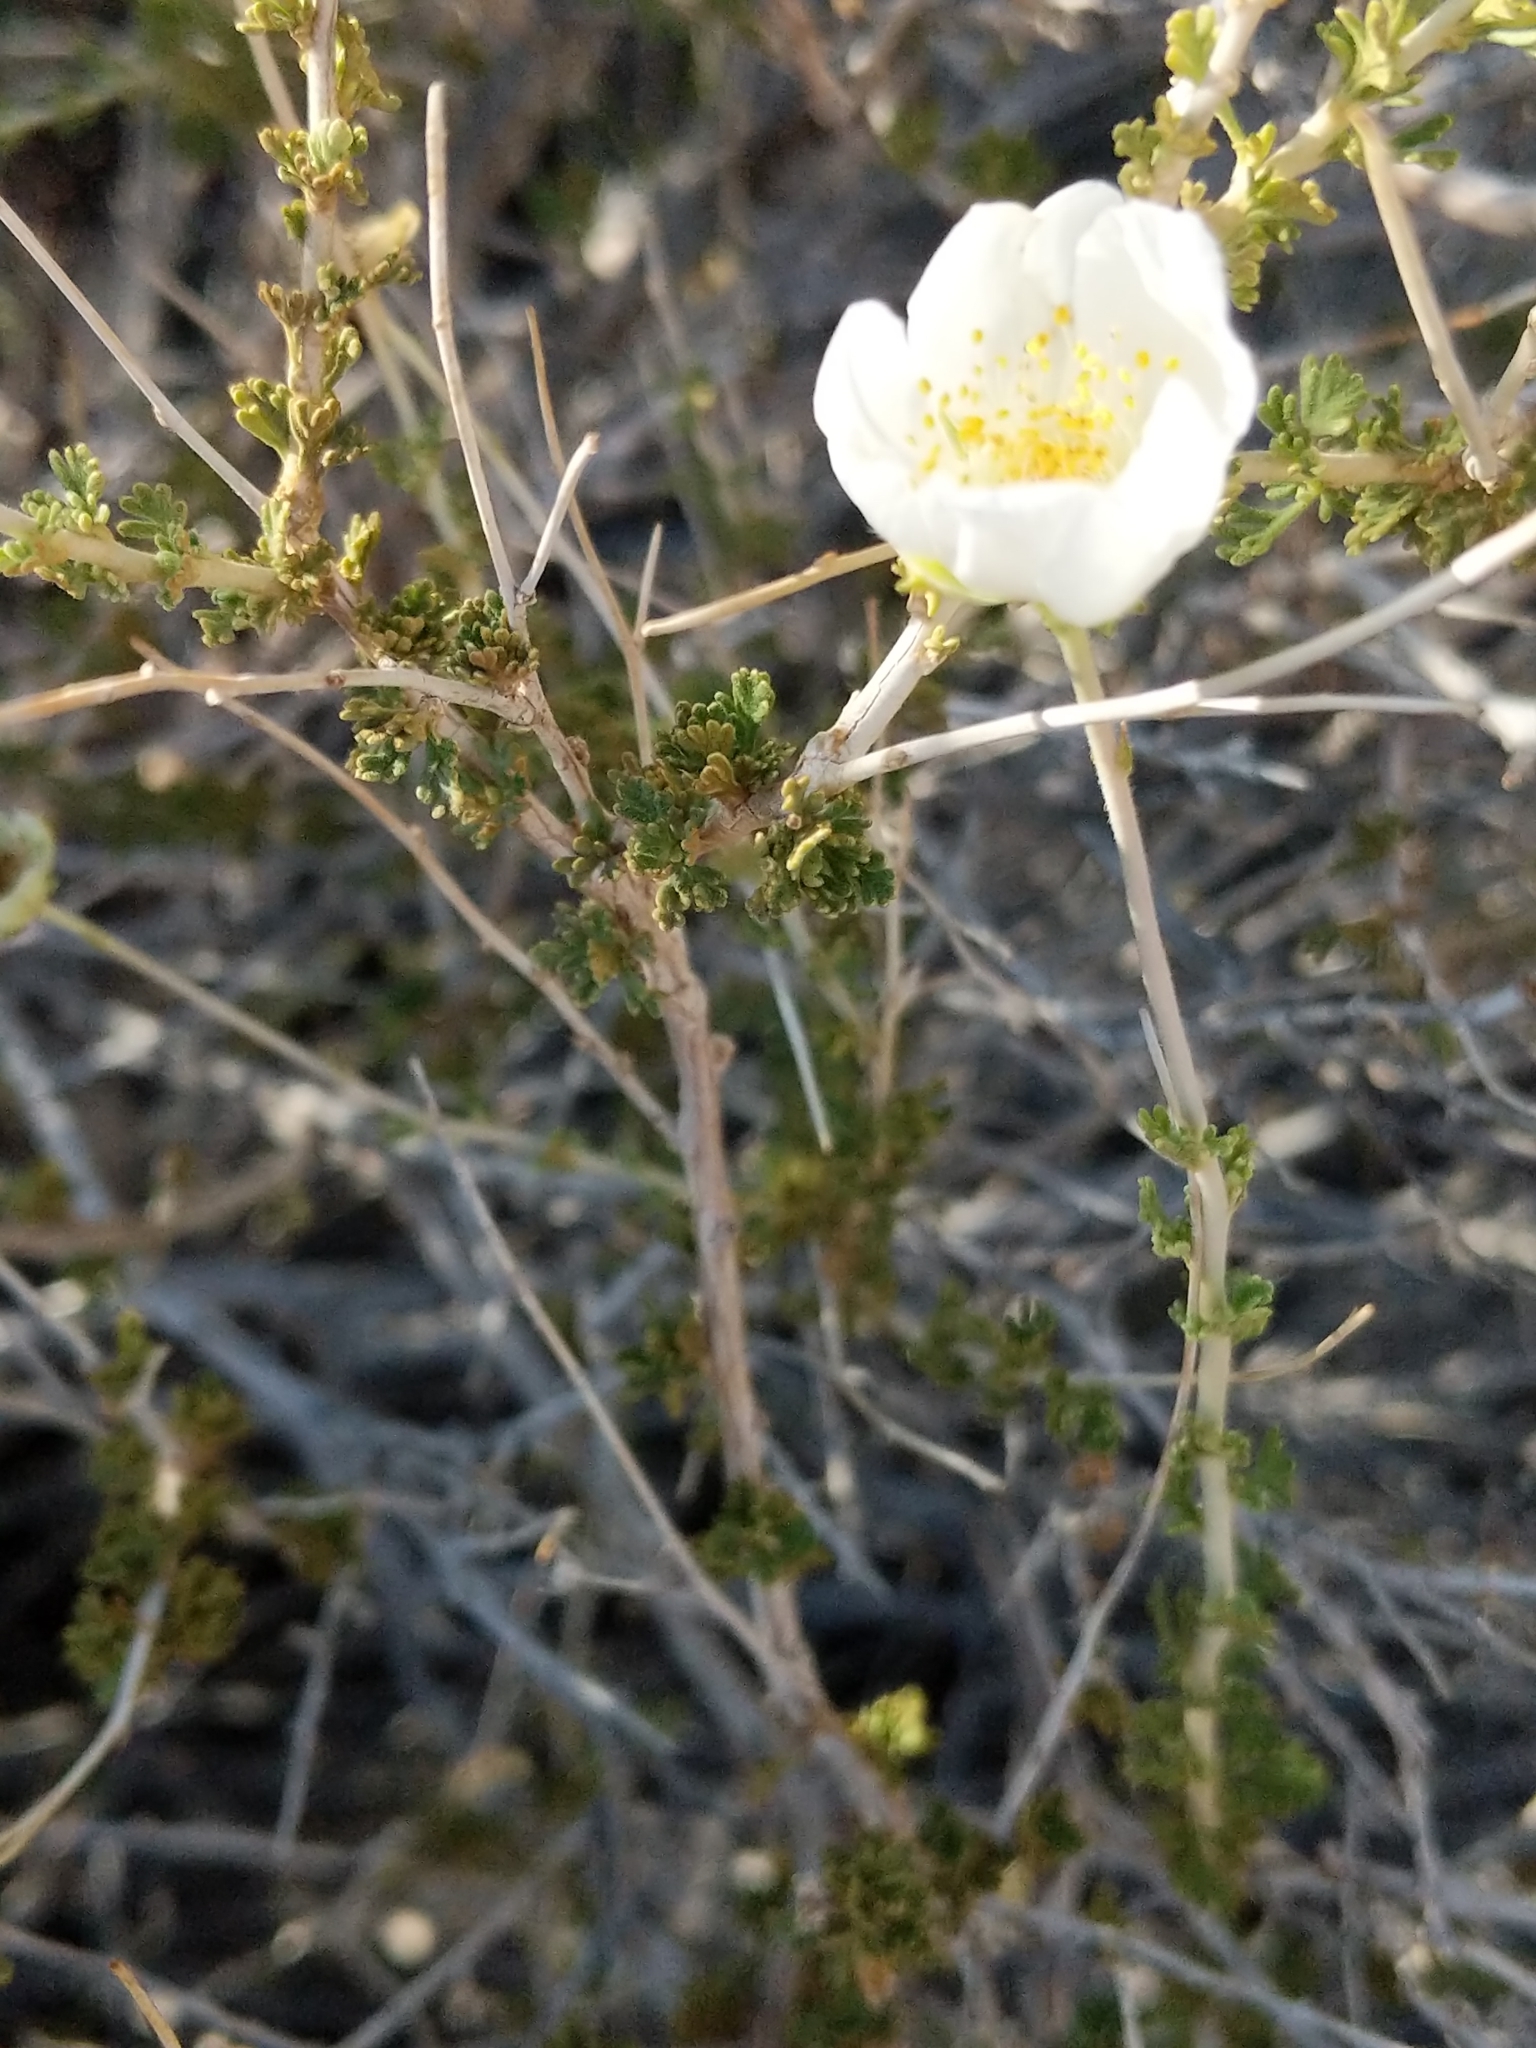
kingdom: Plantae
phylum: Tracheophyta
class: Magnoliopsida
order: Rosales
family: Rosaceae
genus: Fallugia
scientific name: Fallugia paradoxa
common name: Apache-plume
